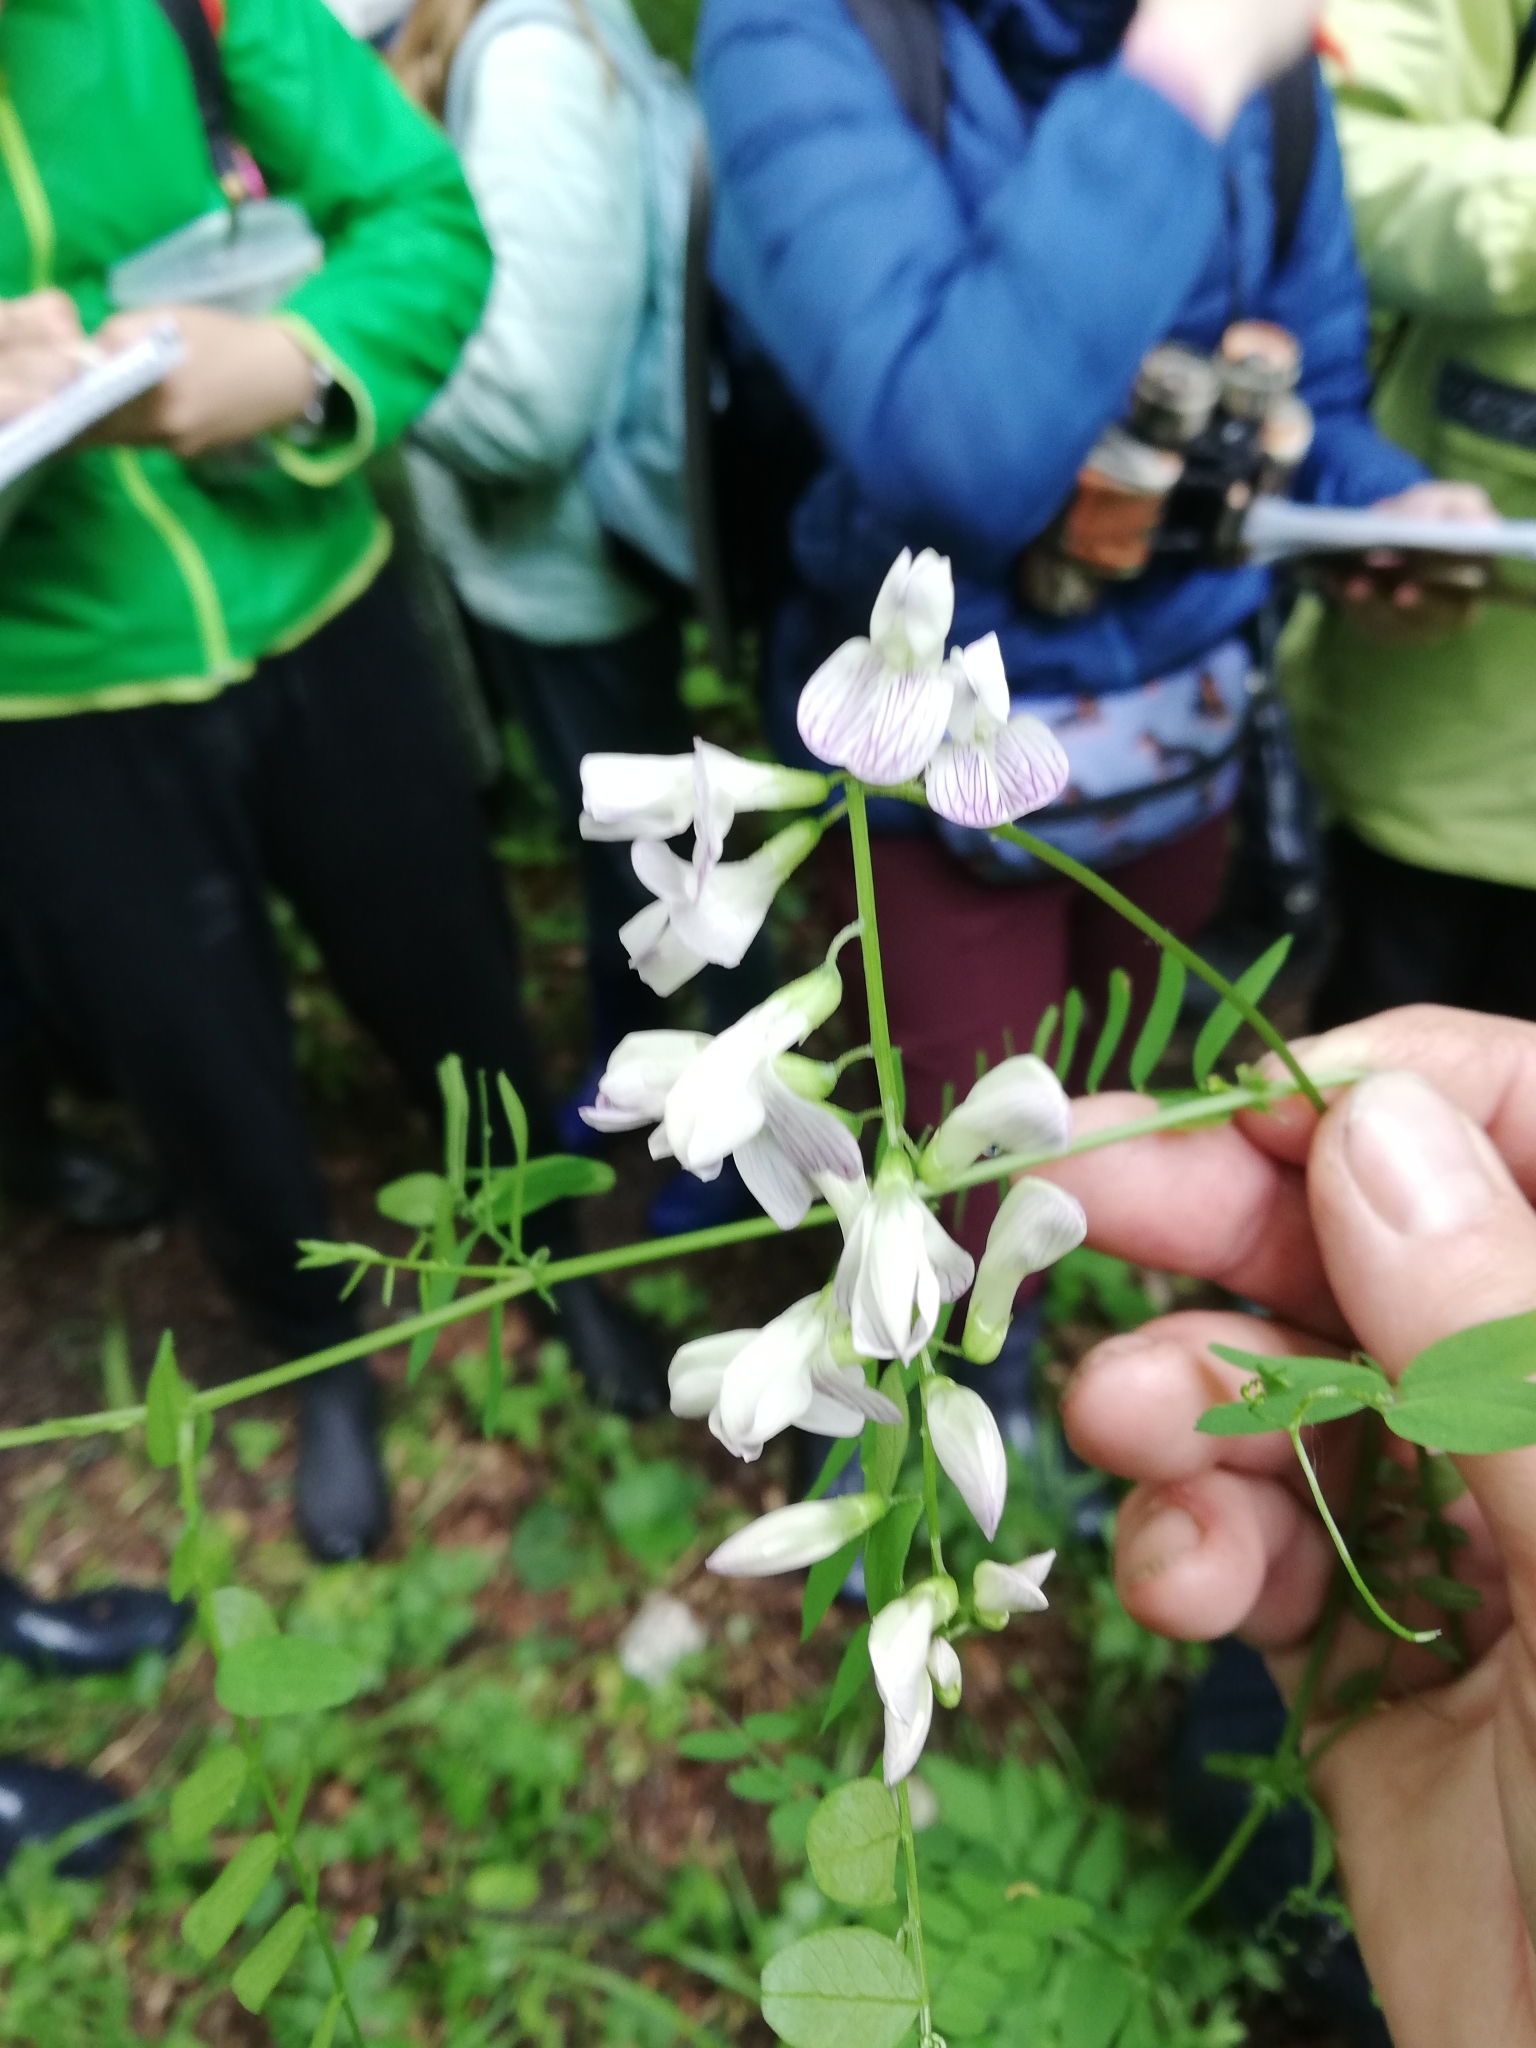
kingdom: Plantae
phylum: Tracheophyta
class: Magnoliopsida
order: Fabales
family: Fabaceae
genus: Vicia
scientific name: Vicia sylvatica
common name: Wood vetch
